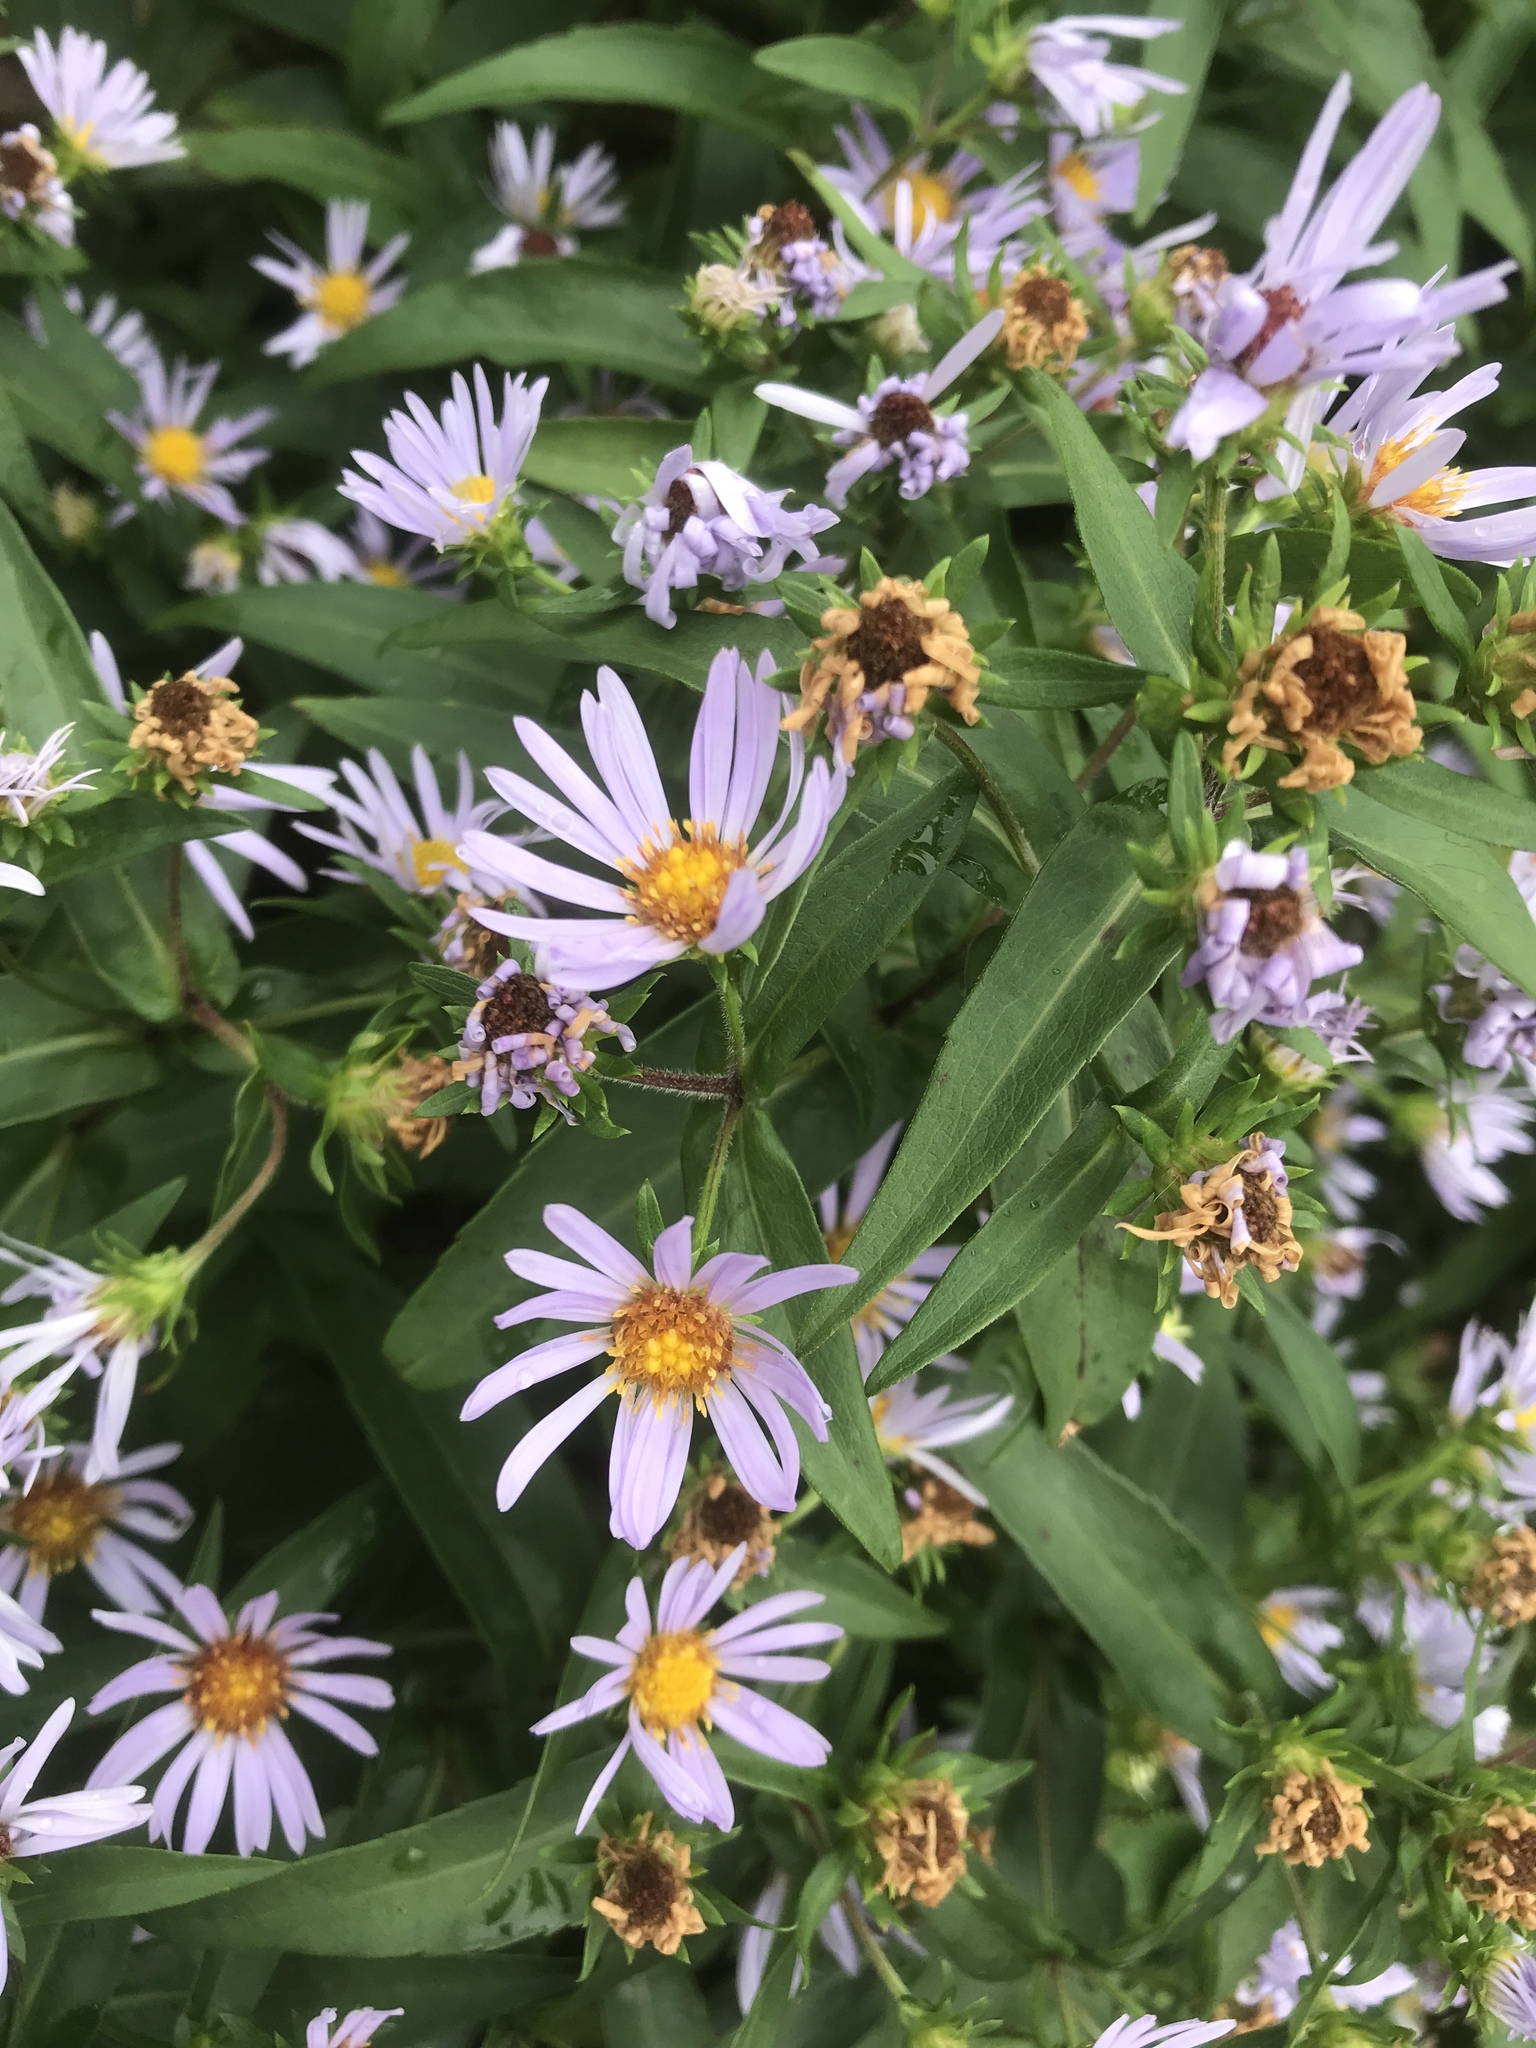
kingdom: Plantae
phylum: Tracheophyta
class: Magnoliopsida
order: Asterales
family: Asteraceae
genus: Symphyotrichum
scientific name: Symphyotrichum puniceum
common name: Bog aster
